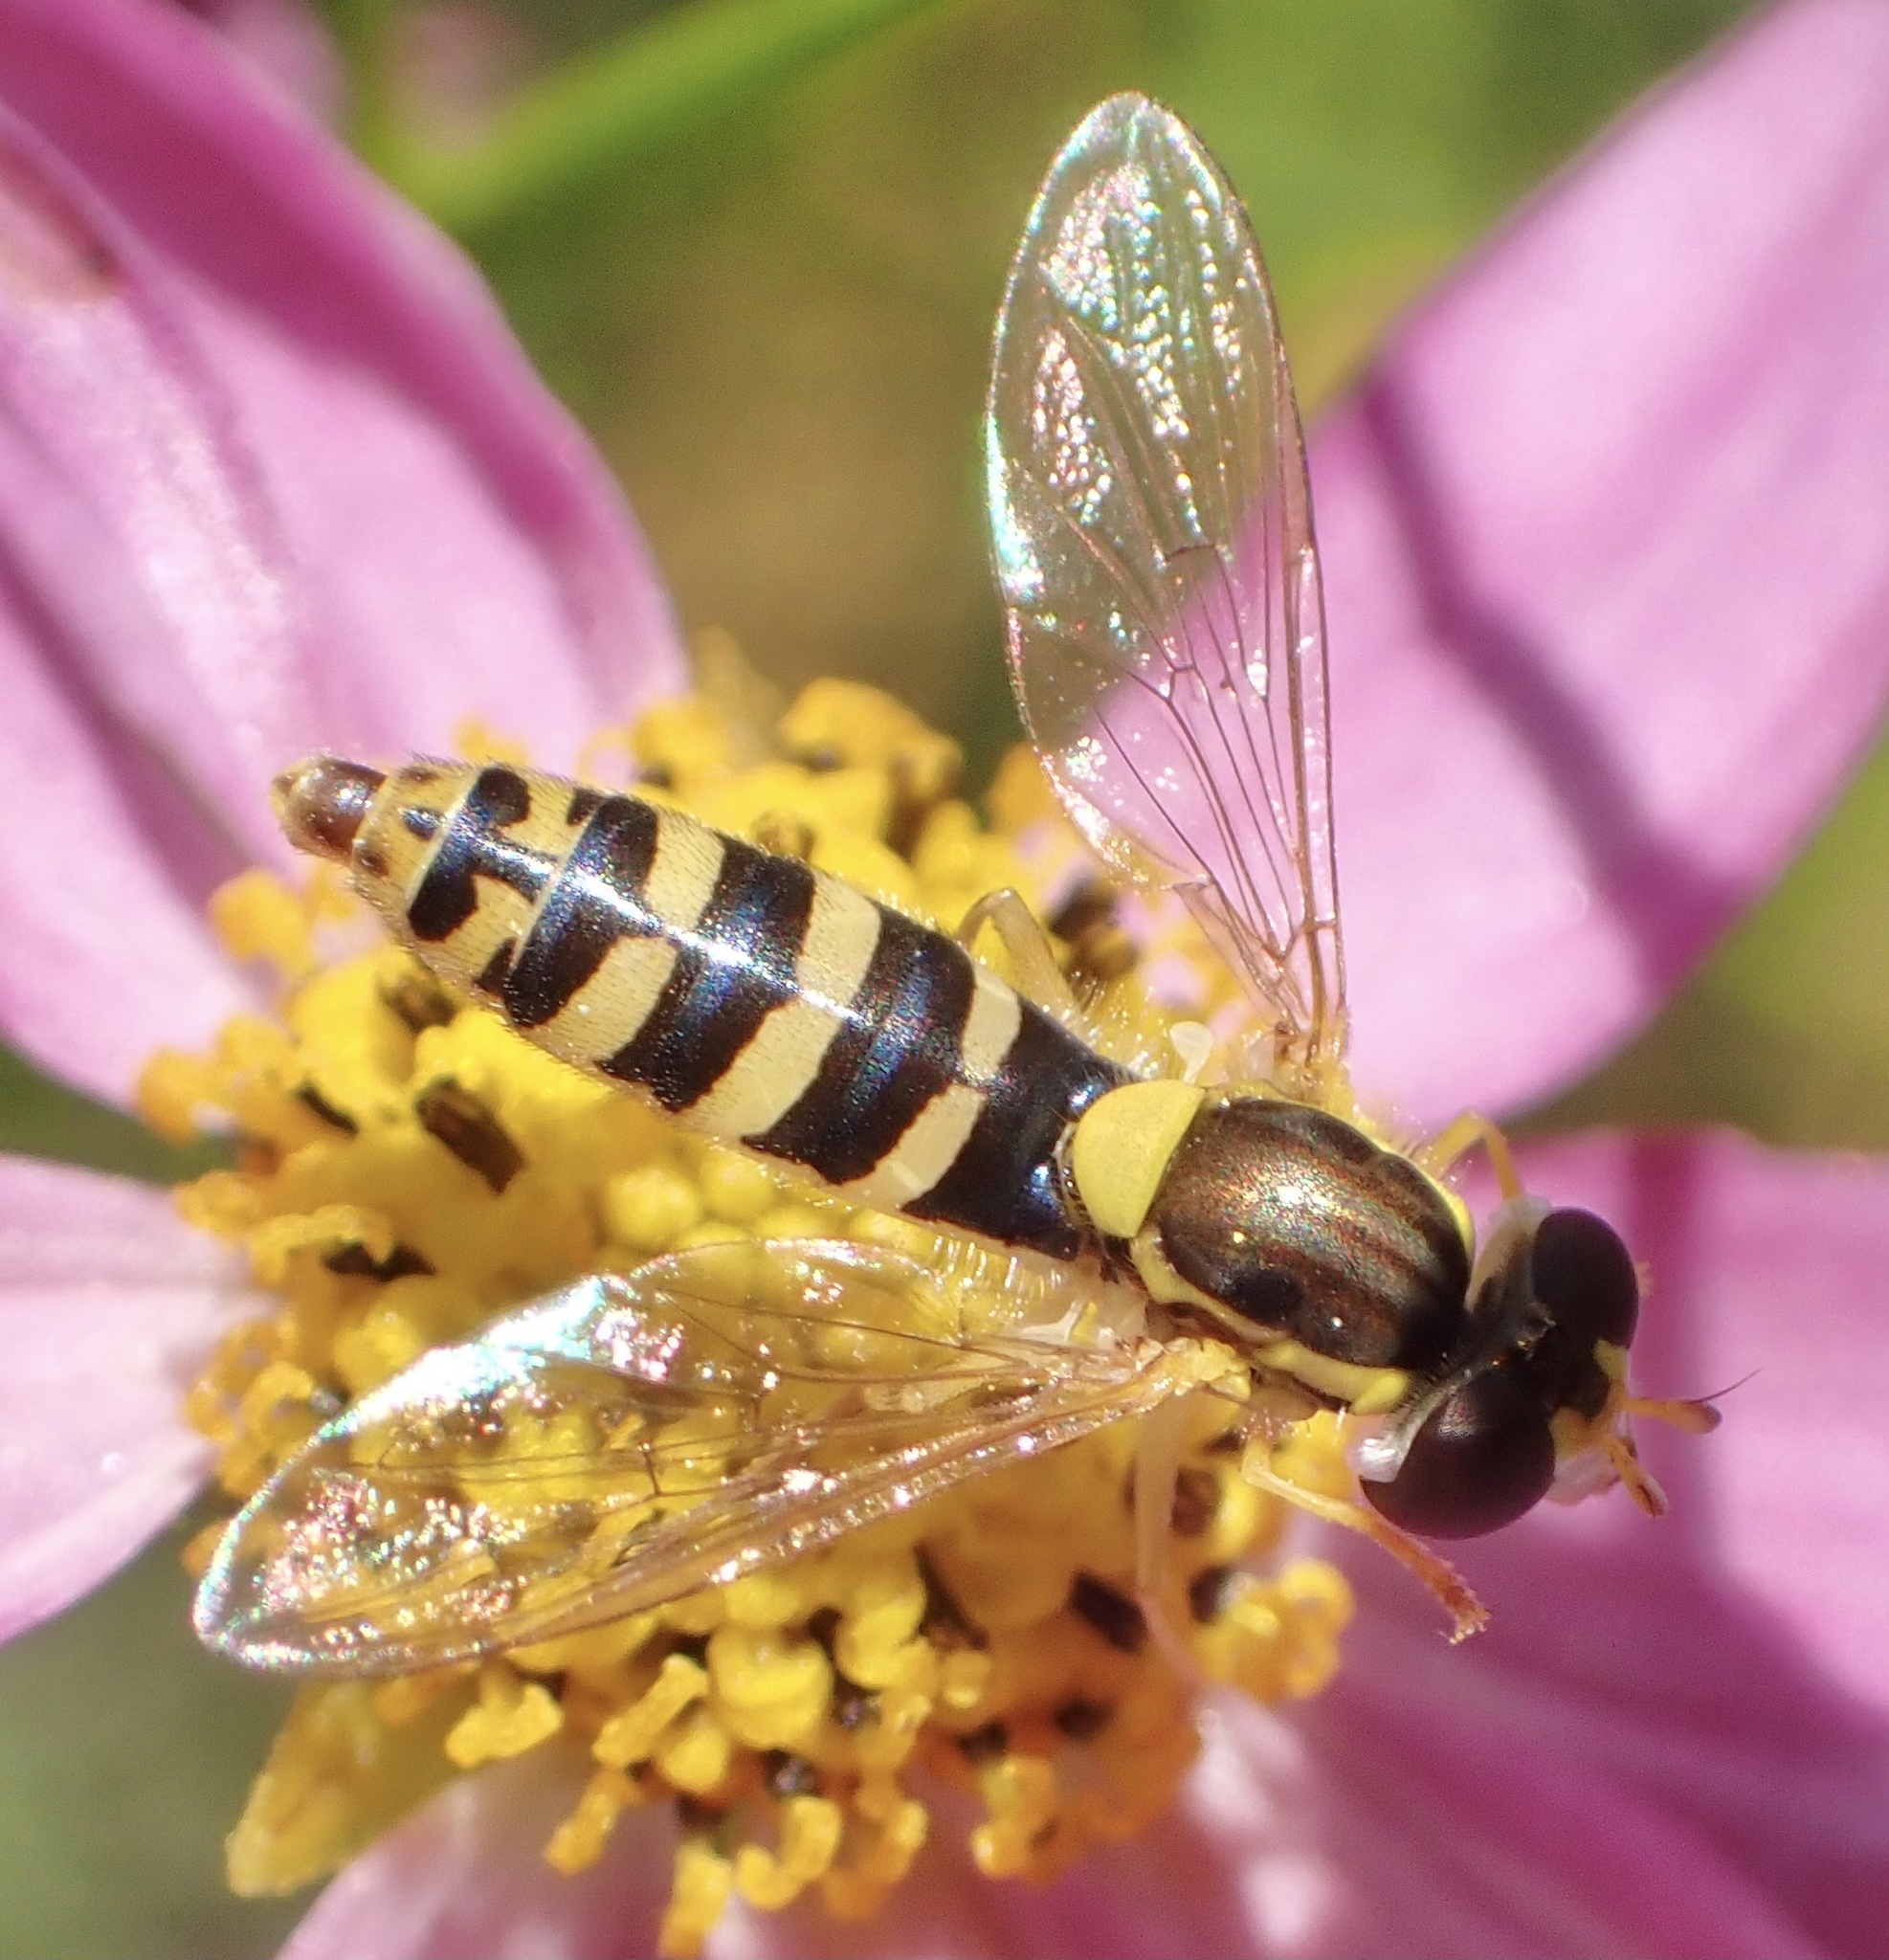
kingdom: Animalia
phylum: Arthropoda
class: Insecta
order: Diptera
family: Syrphidae
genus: Sphaerophoria
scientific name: Sphaerophoria
